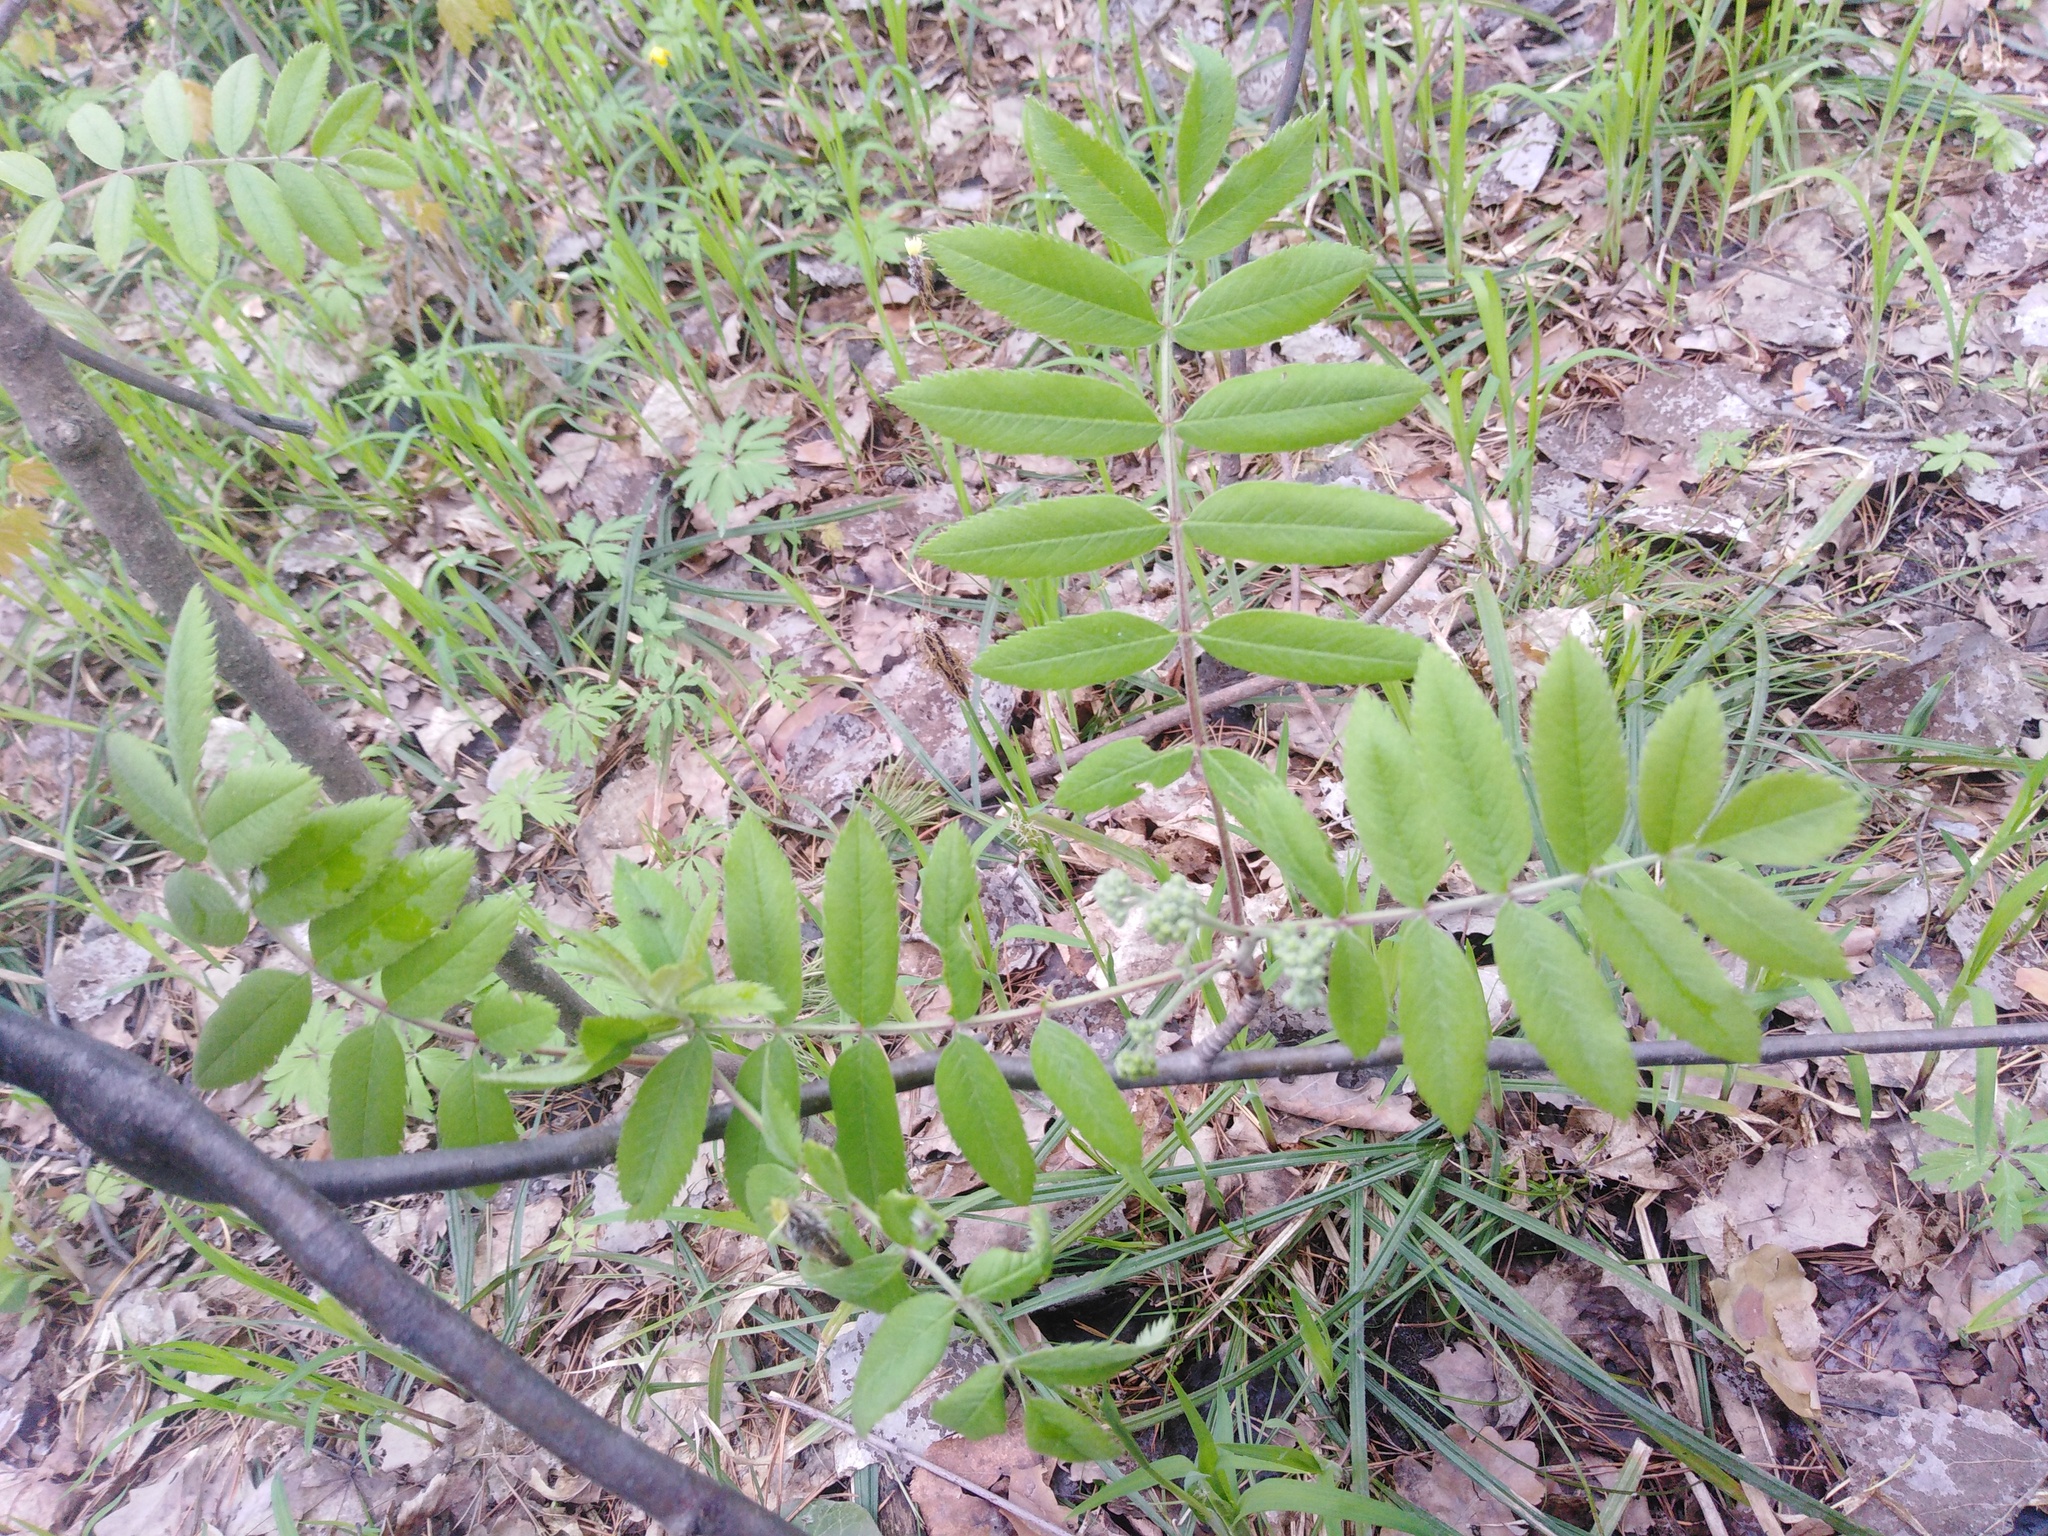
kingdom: Plantae
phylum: Tracheophyta
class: Magnoliopsida
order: Rosales
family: Rosaceae
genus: Sorbus
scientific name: Sorbus aucuparia
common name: Rowan
